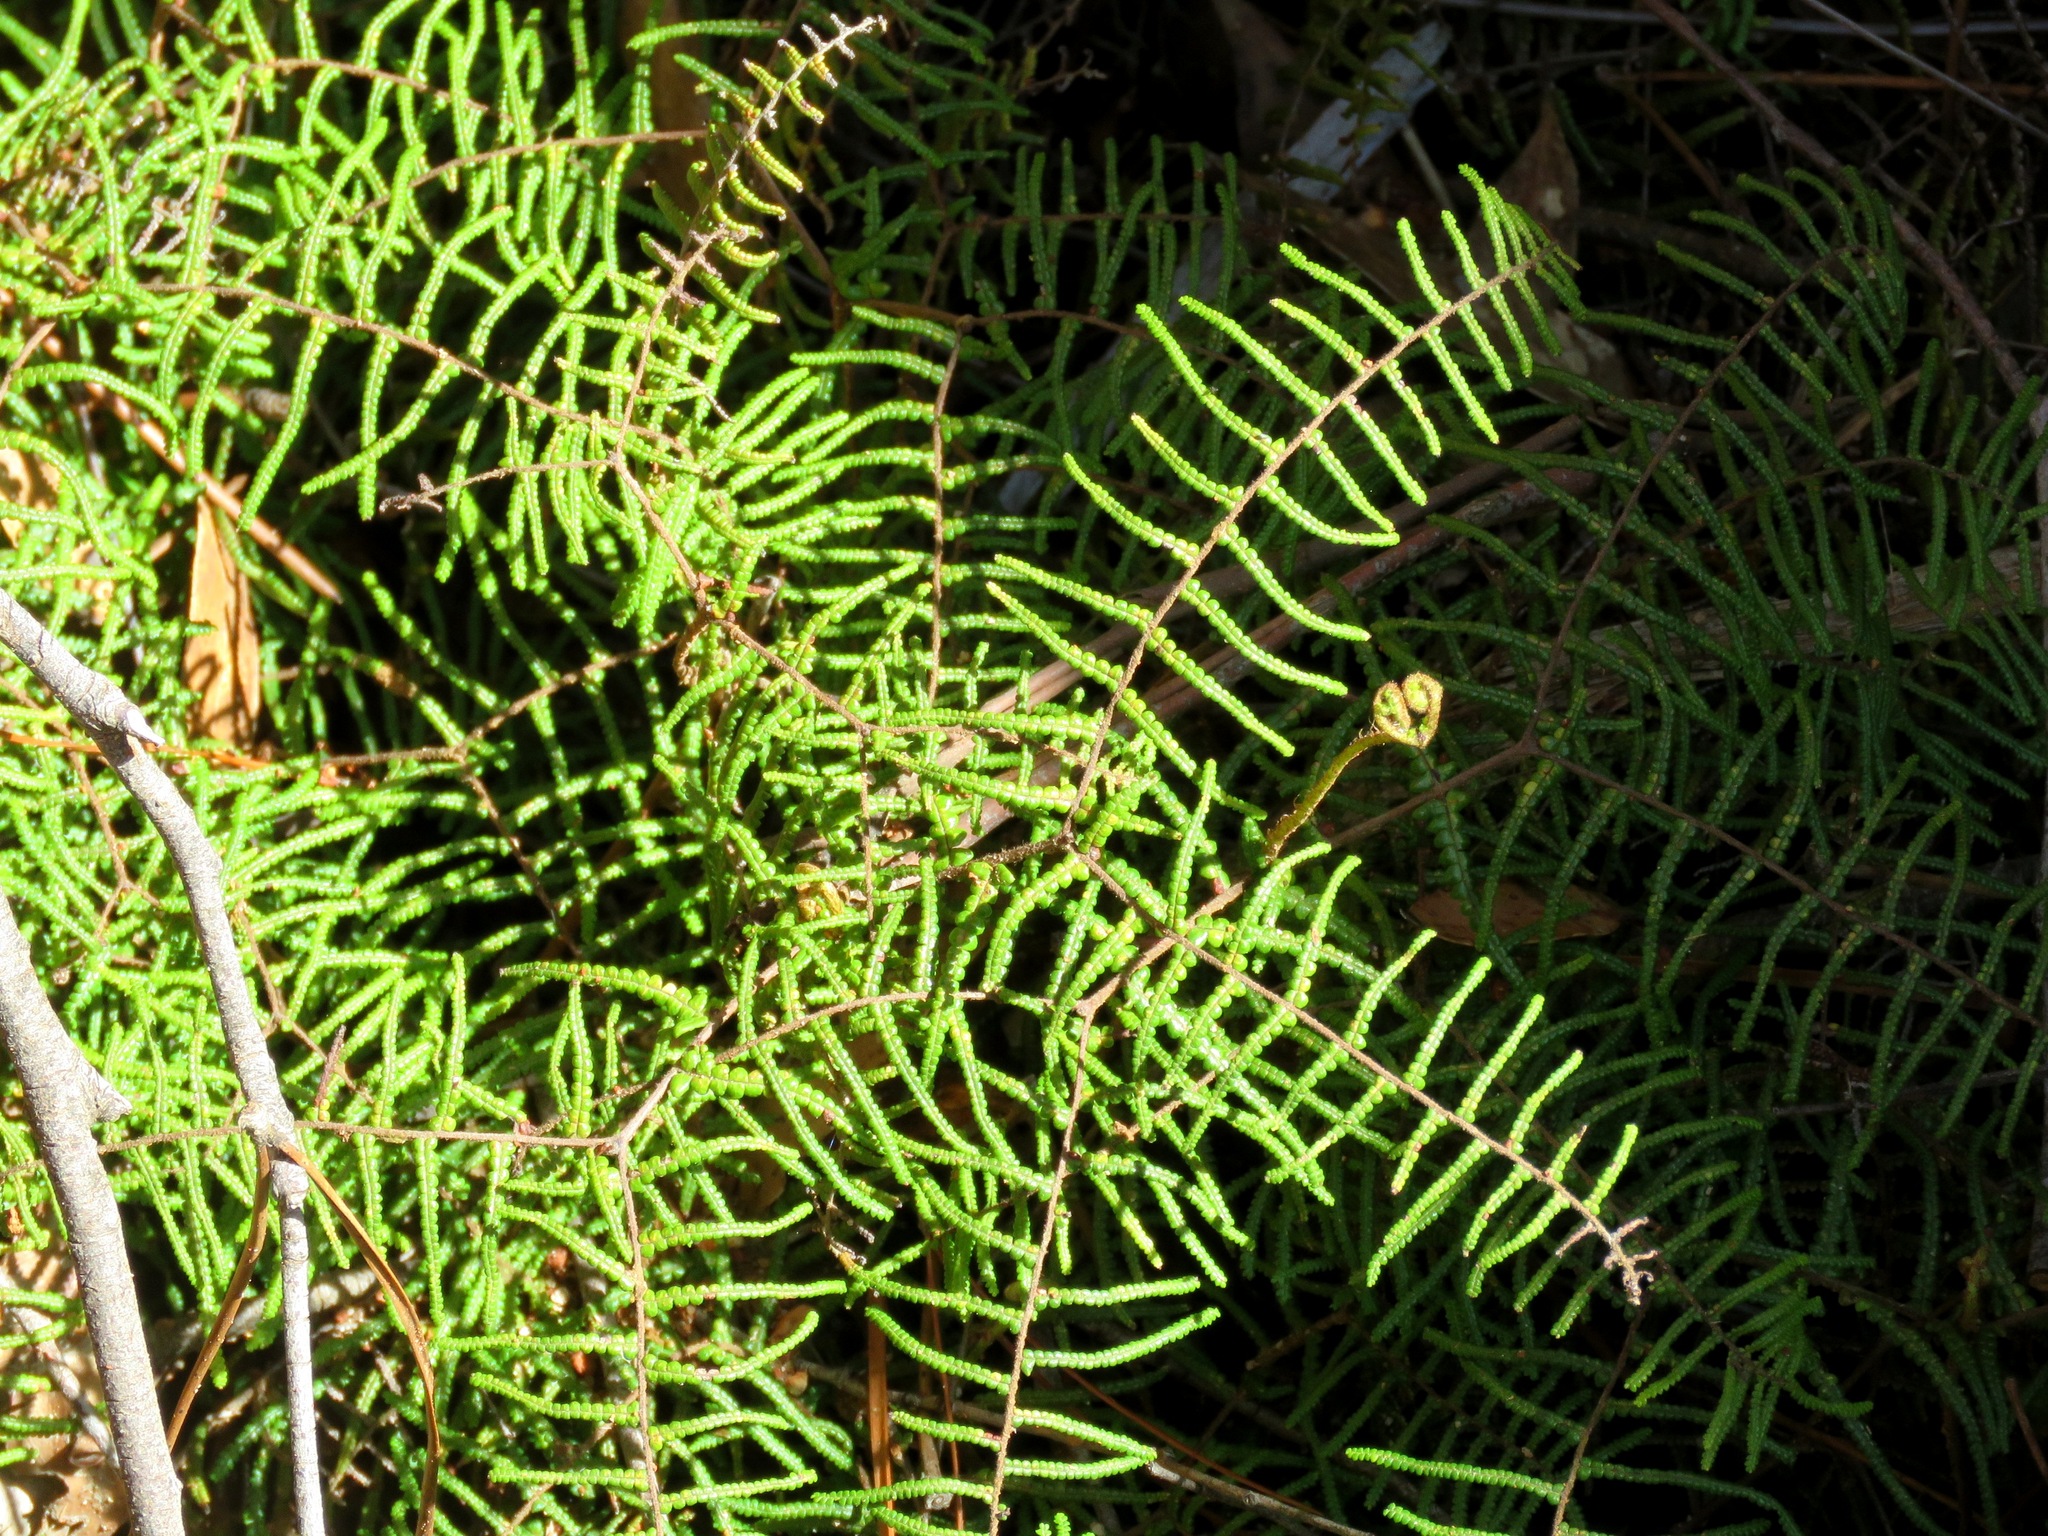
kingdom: Plantae
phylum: Tracheophyta
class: Polypodiopsida
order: Gleicheniales
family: Gleicheniaceae
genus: Gleichenia
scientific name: Gleichenia microphylla
